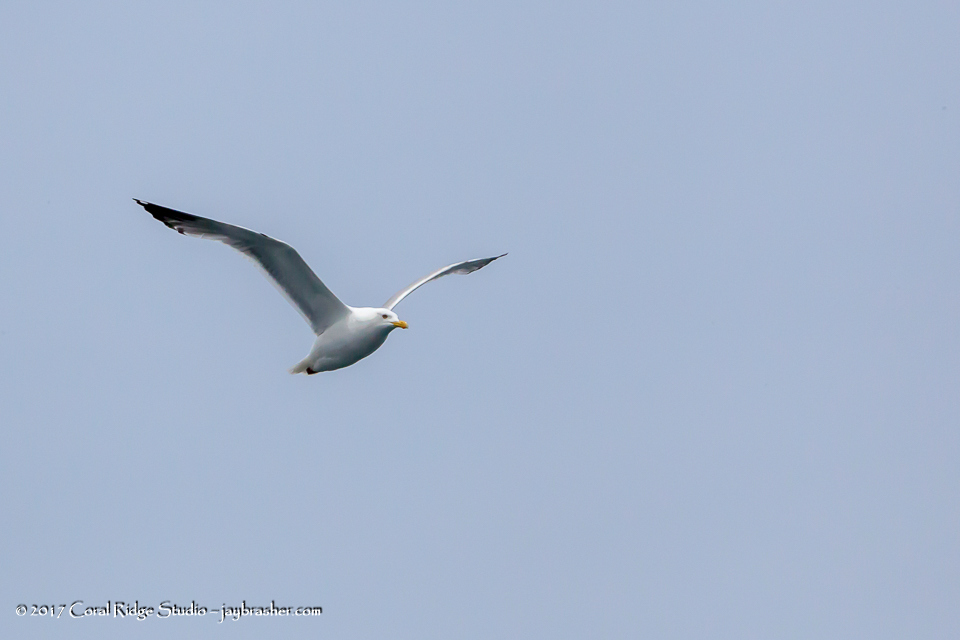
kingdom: Animalia
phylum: Chordata
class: Aves
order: Charadriiformes
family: Laridae
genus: Larus
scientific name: Larus argentatus
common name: Herring gull
